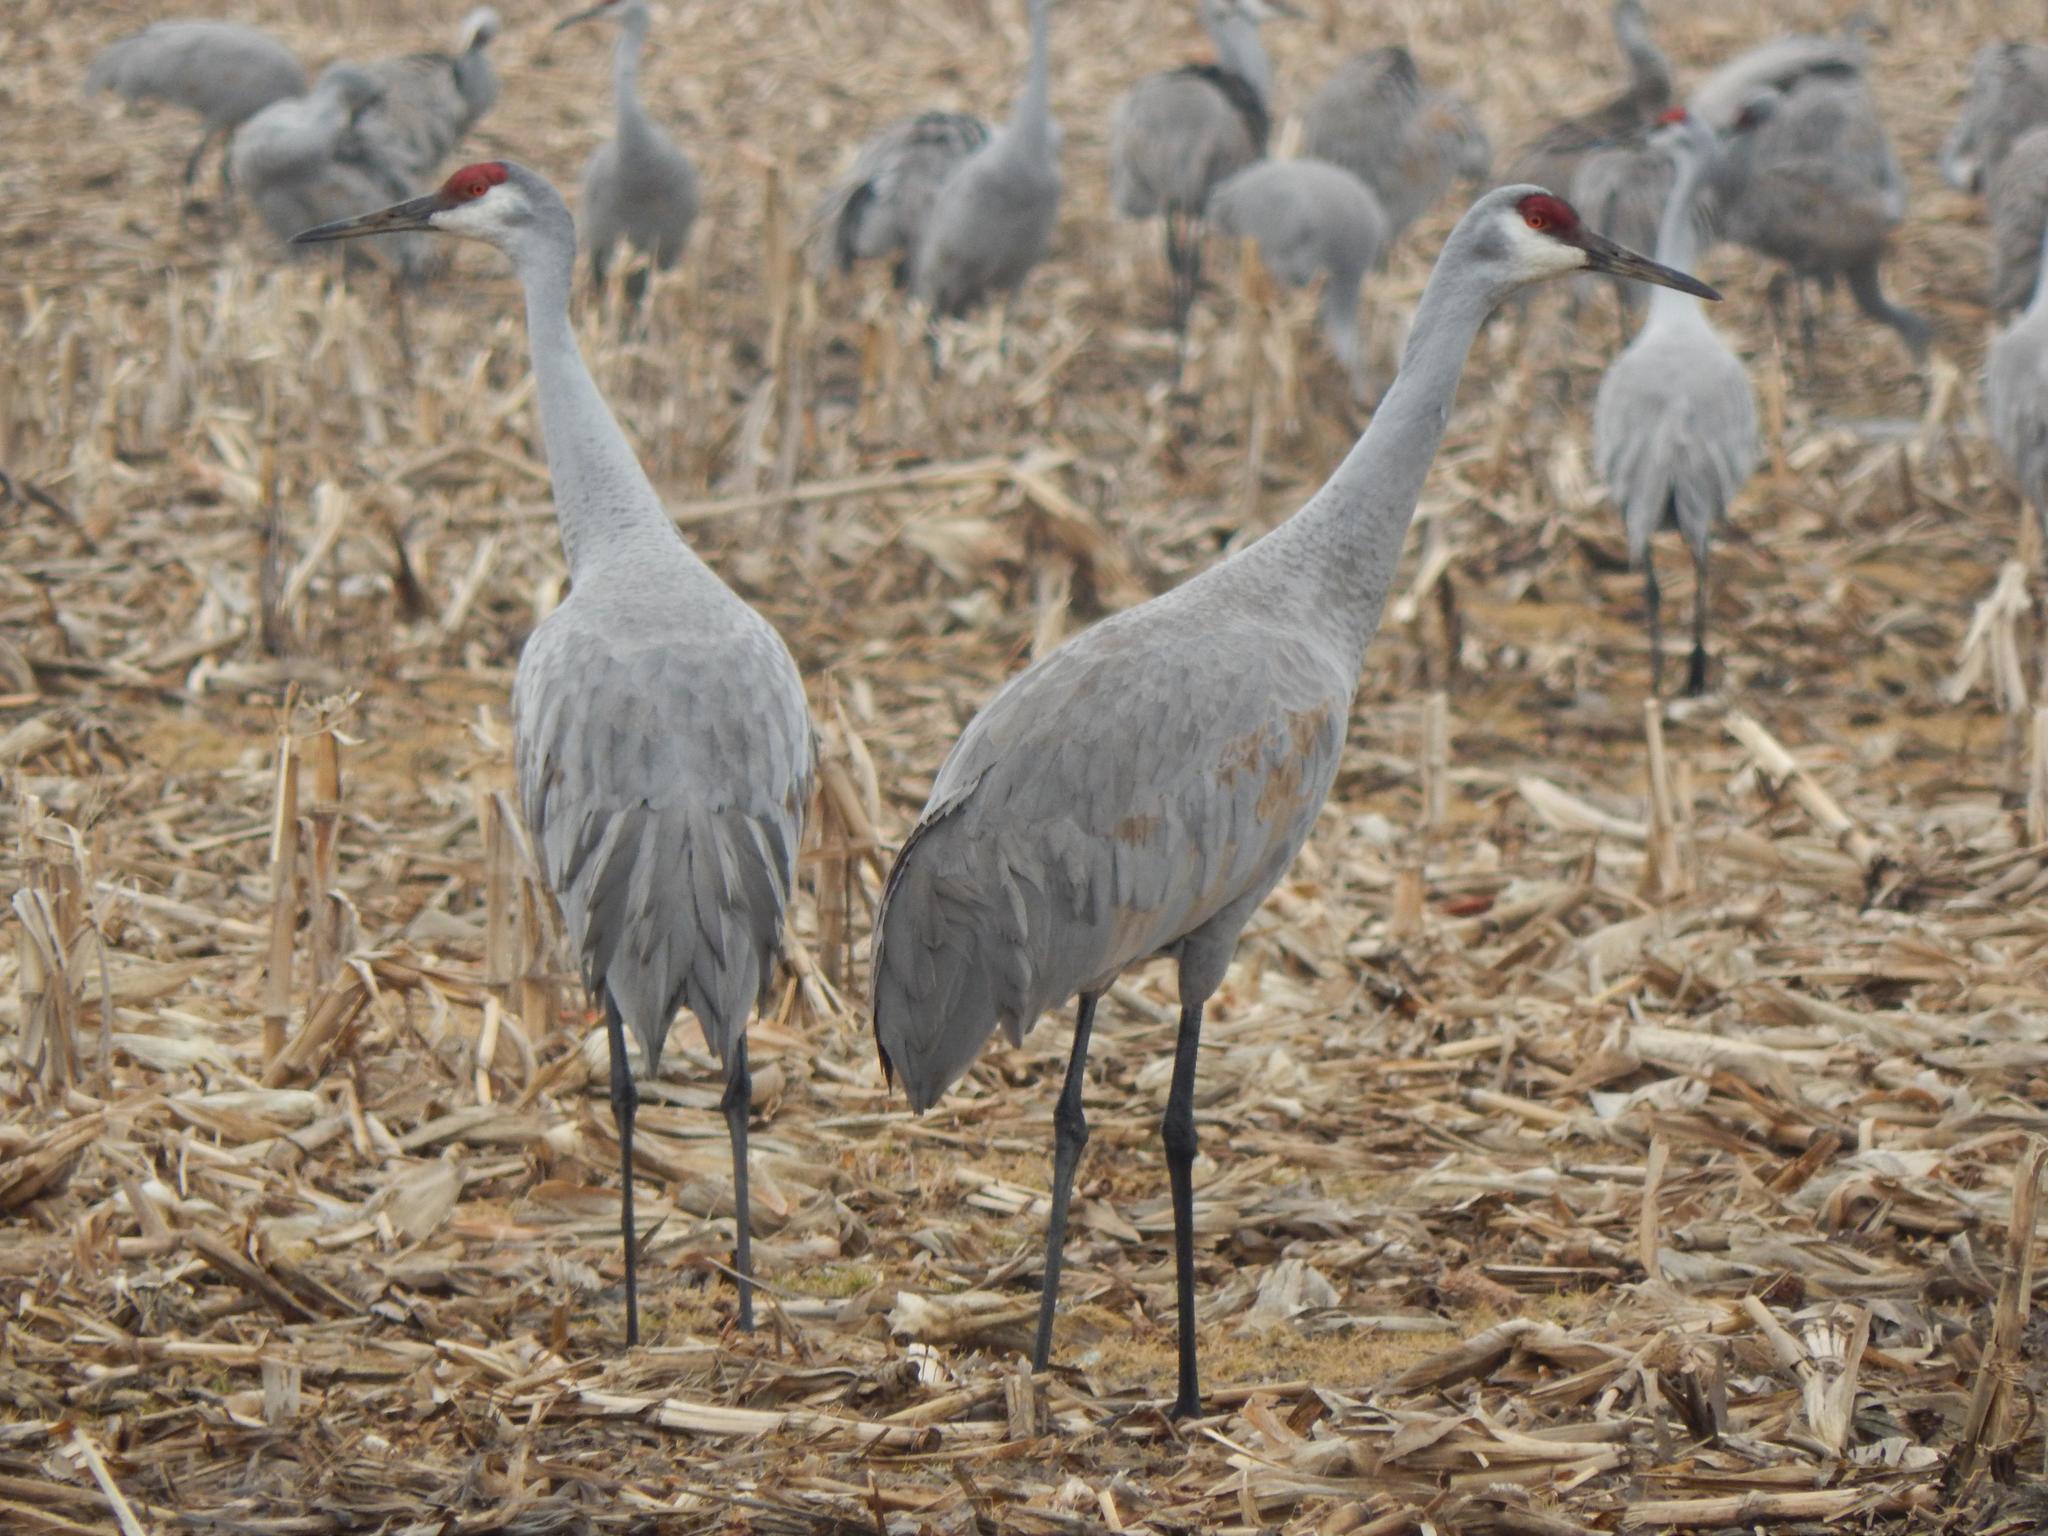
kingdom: Animalia
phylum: Chordata
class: Aves
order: Gruiformes
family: Gruidae
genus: Grus
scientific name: Grus canadensis
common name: Sandhill crane
